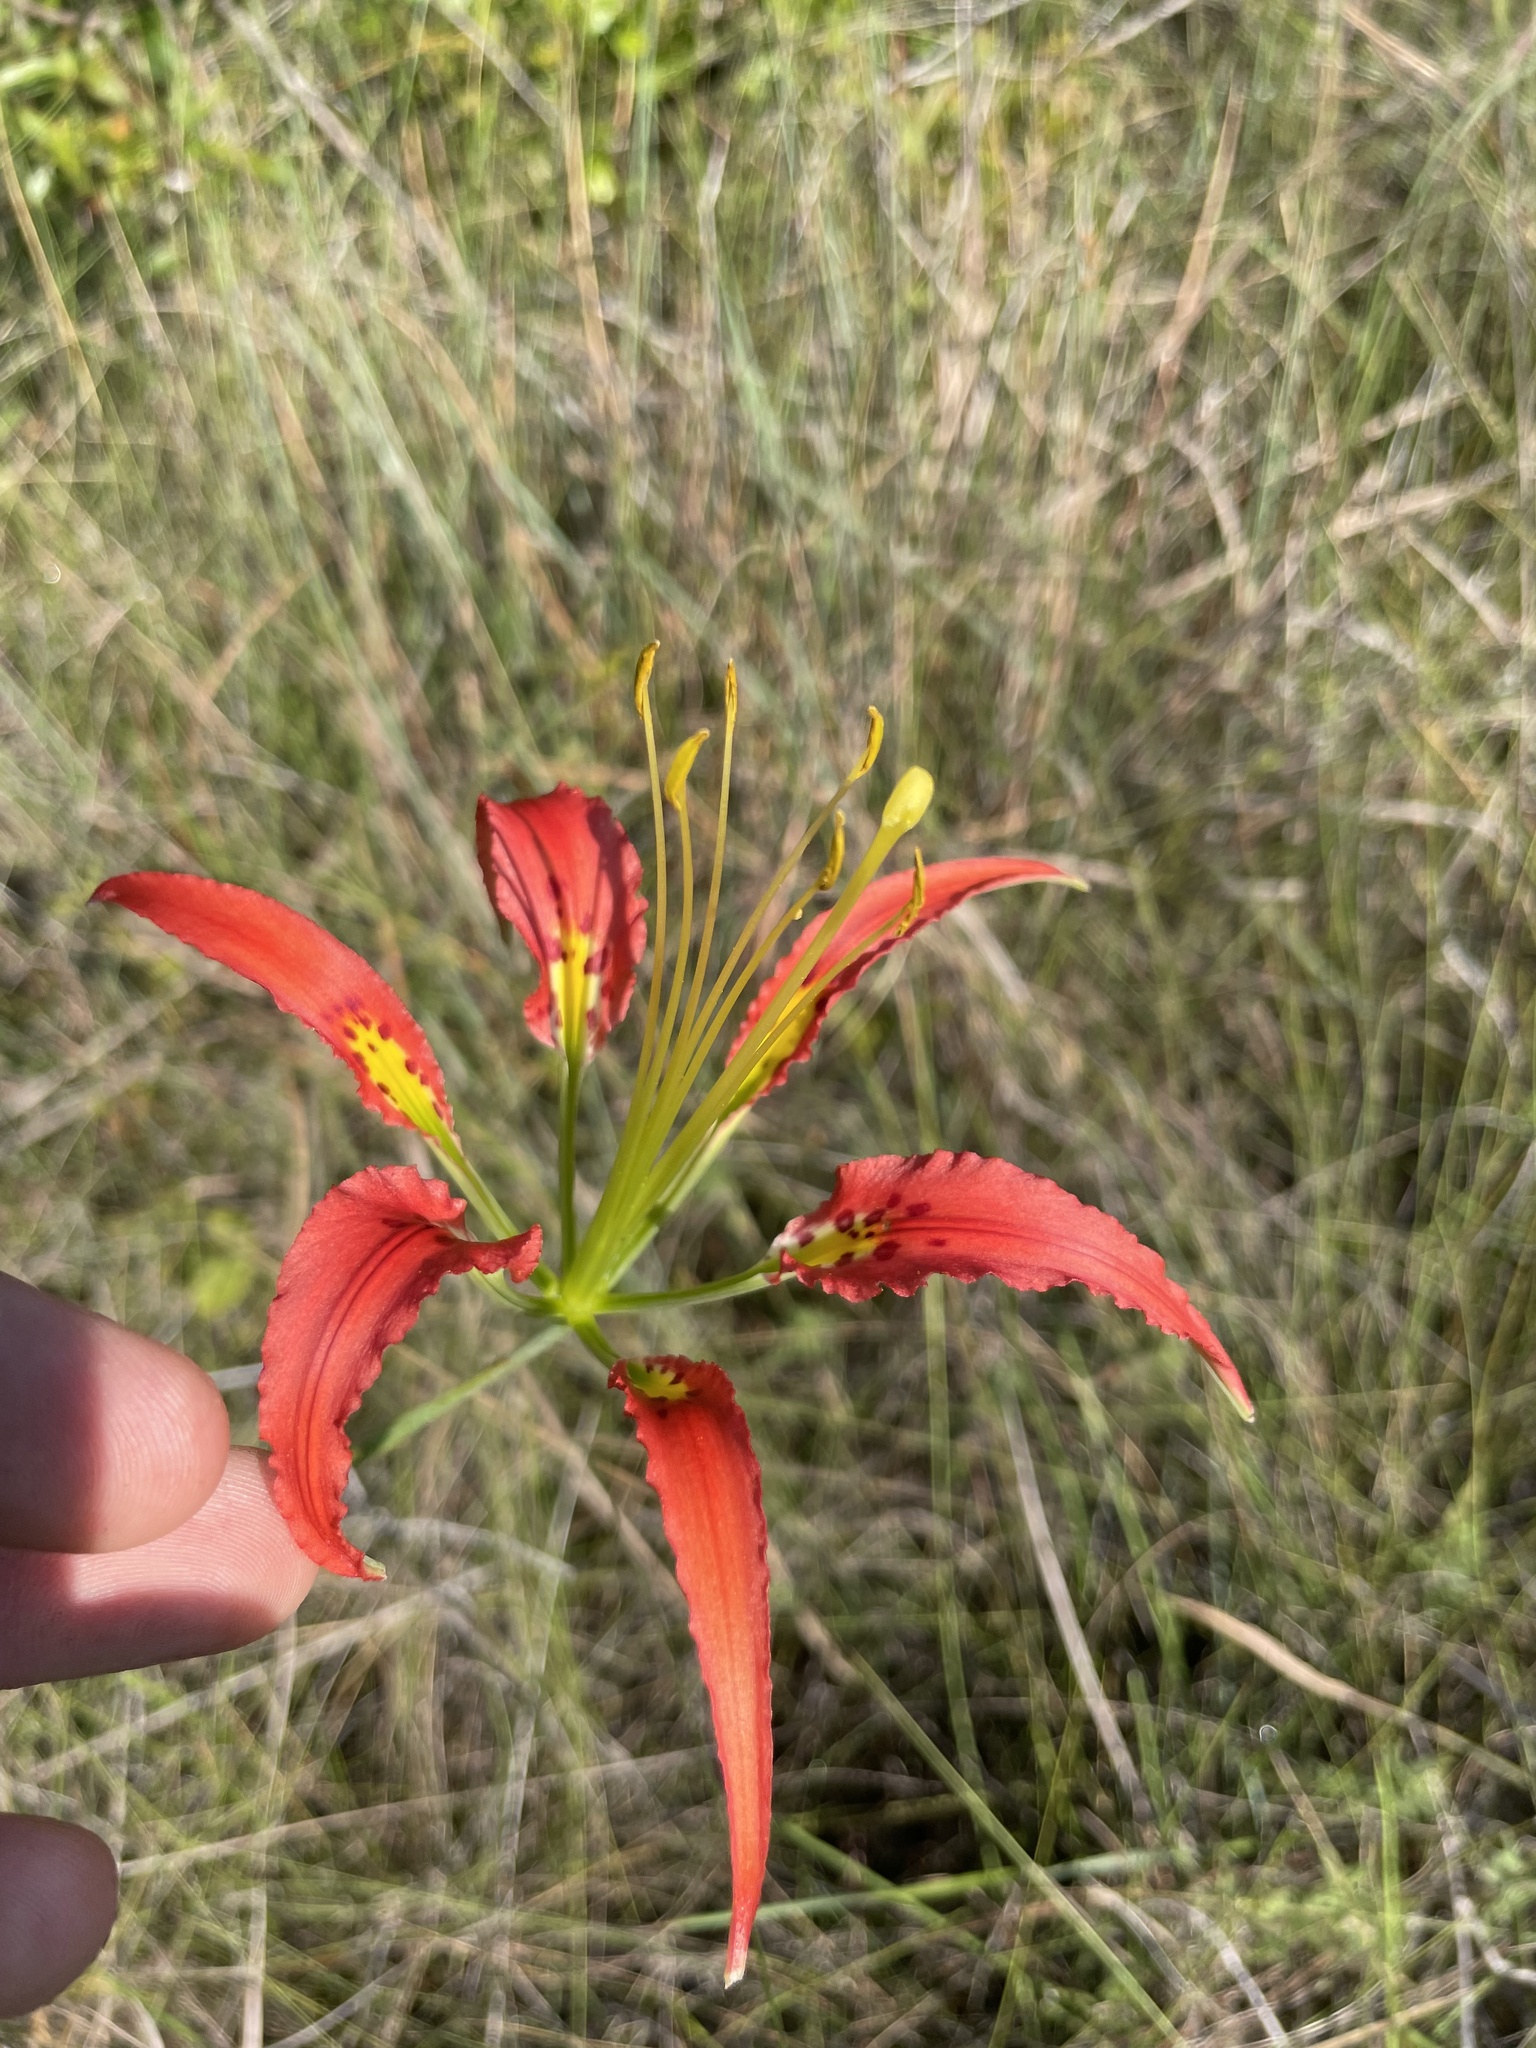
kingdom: Plantae
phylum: Tracheophyta
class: Liliopsida
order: Liliales
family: Liliaceae
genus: Lilium
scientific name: Lilium catesbaei
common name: Catesby's lily
